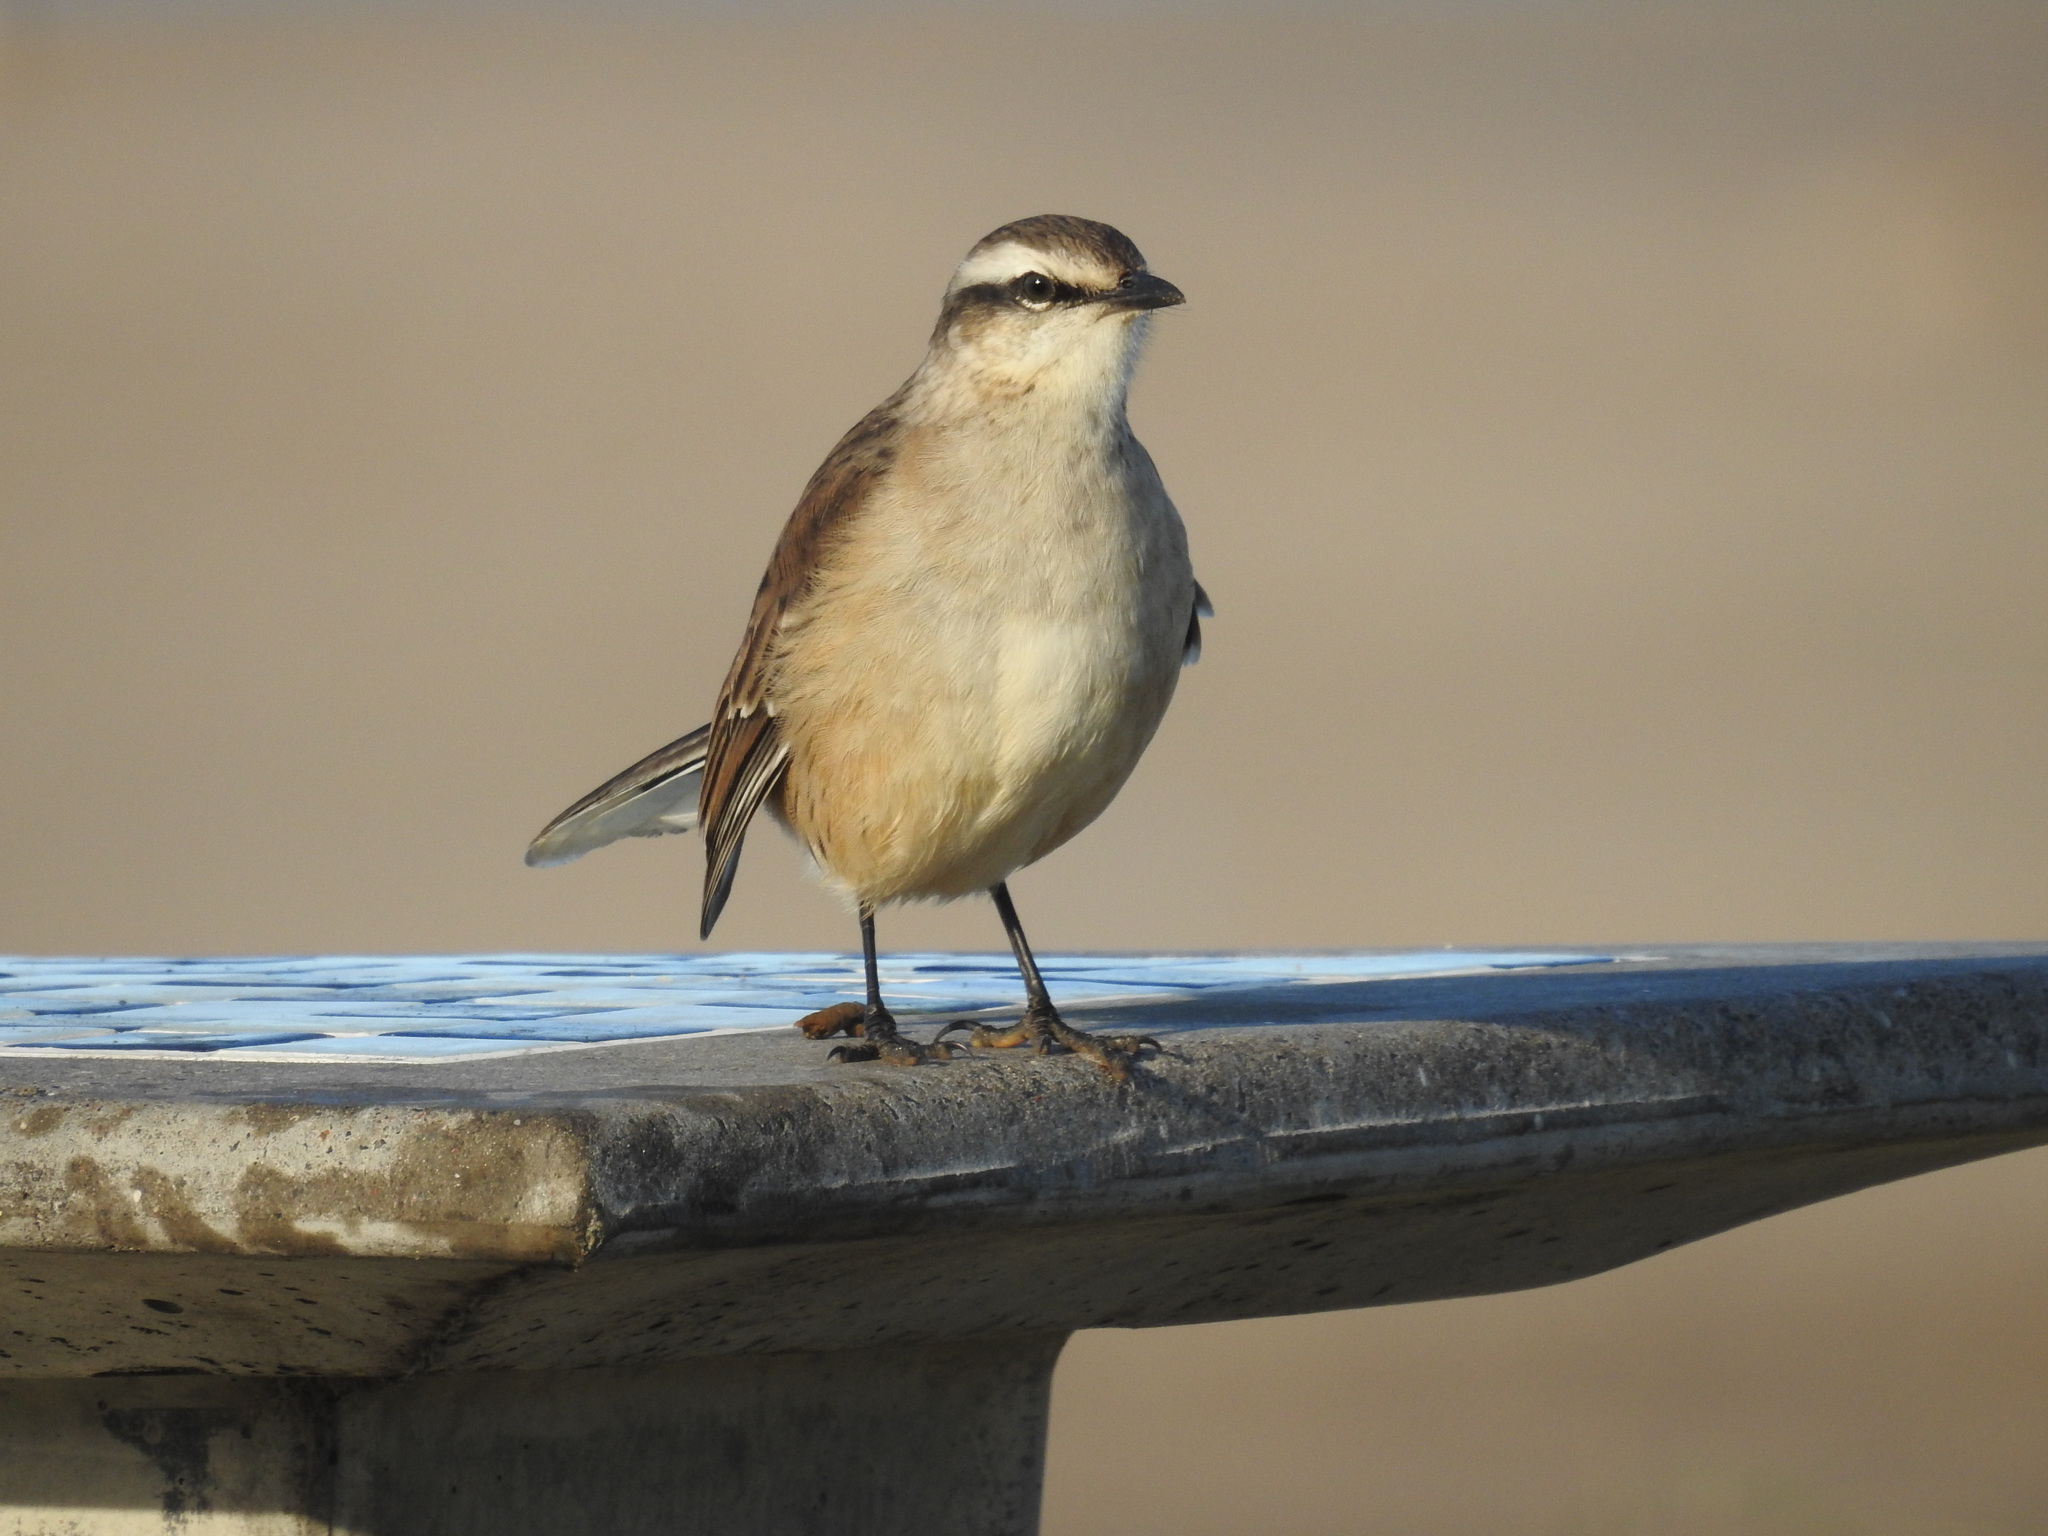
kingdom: Animalia
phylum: Chordata
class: Aves
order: Passeriformes
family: Mimidae
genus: Mimus
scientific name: Mimus saturninus
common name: Chalk-browed mockingbird
